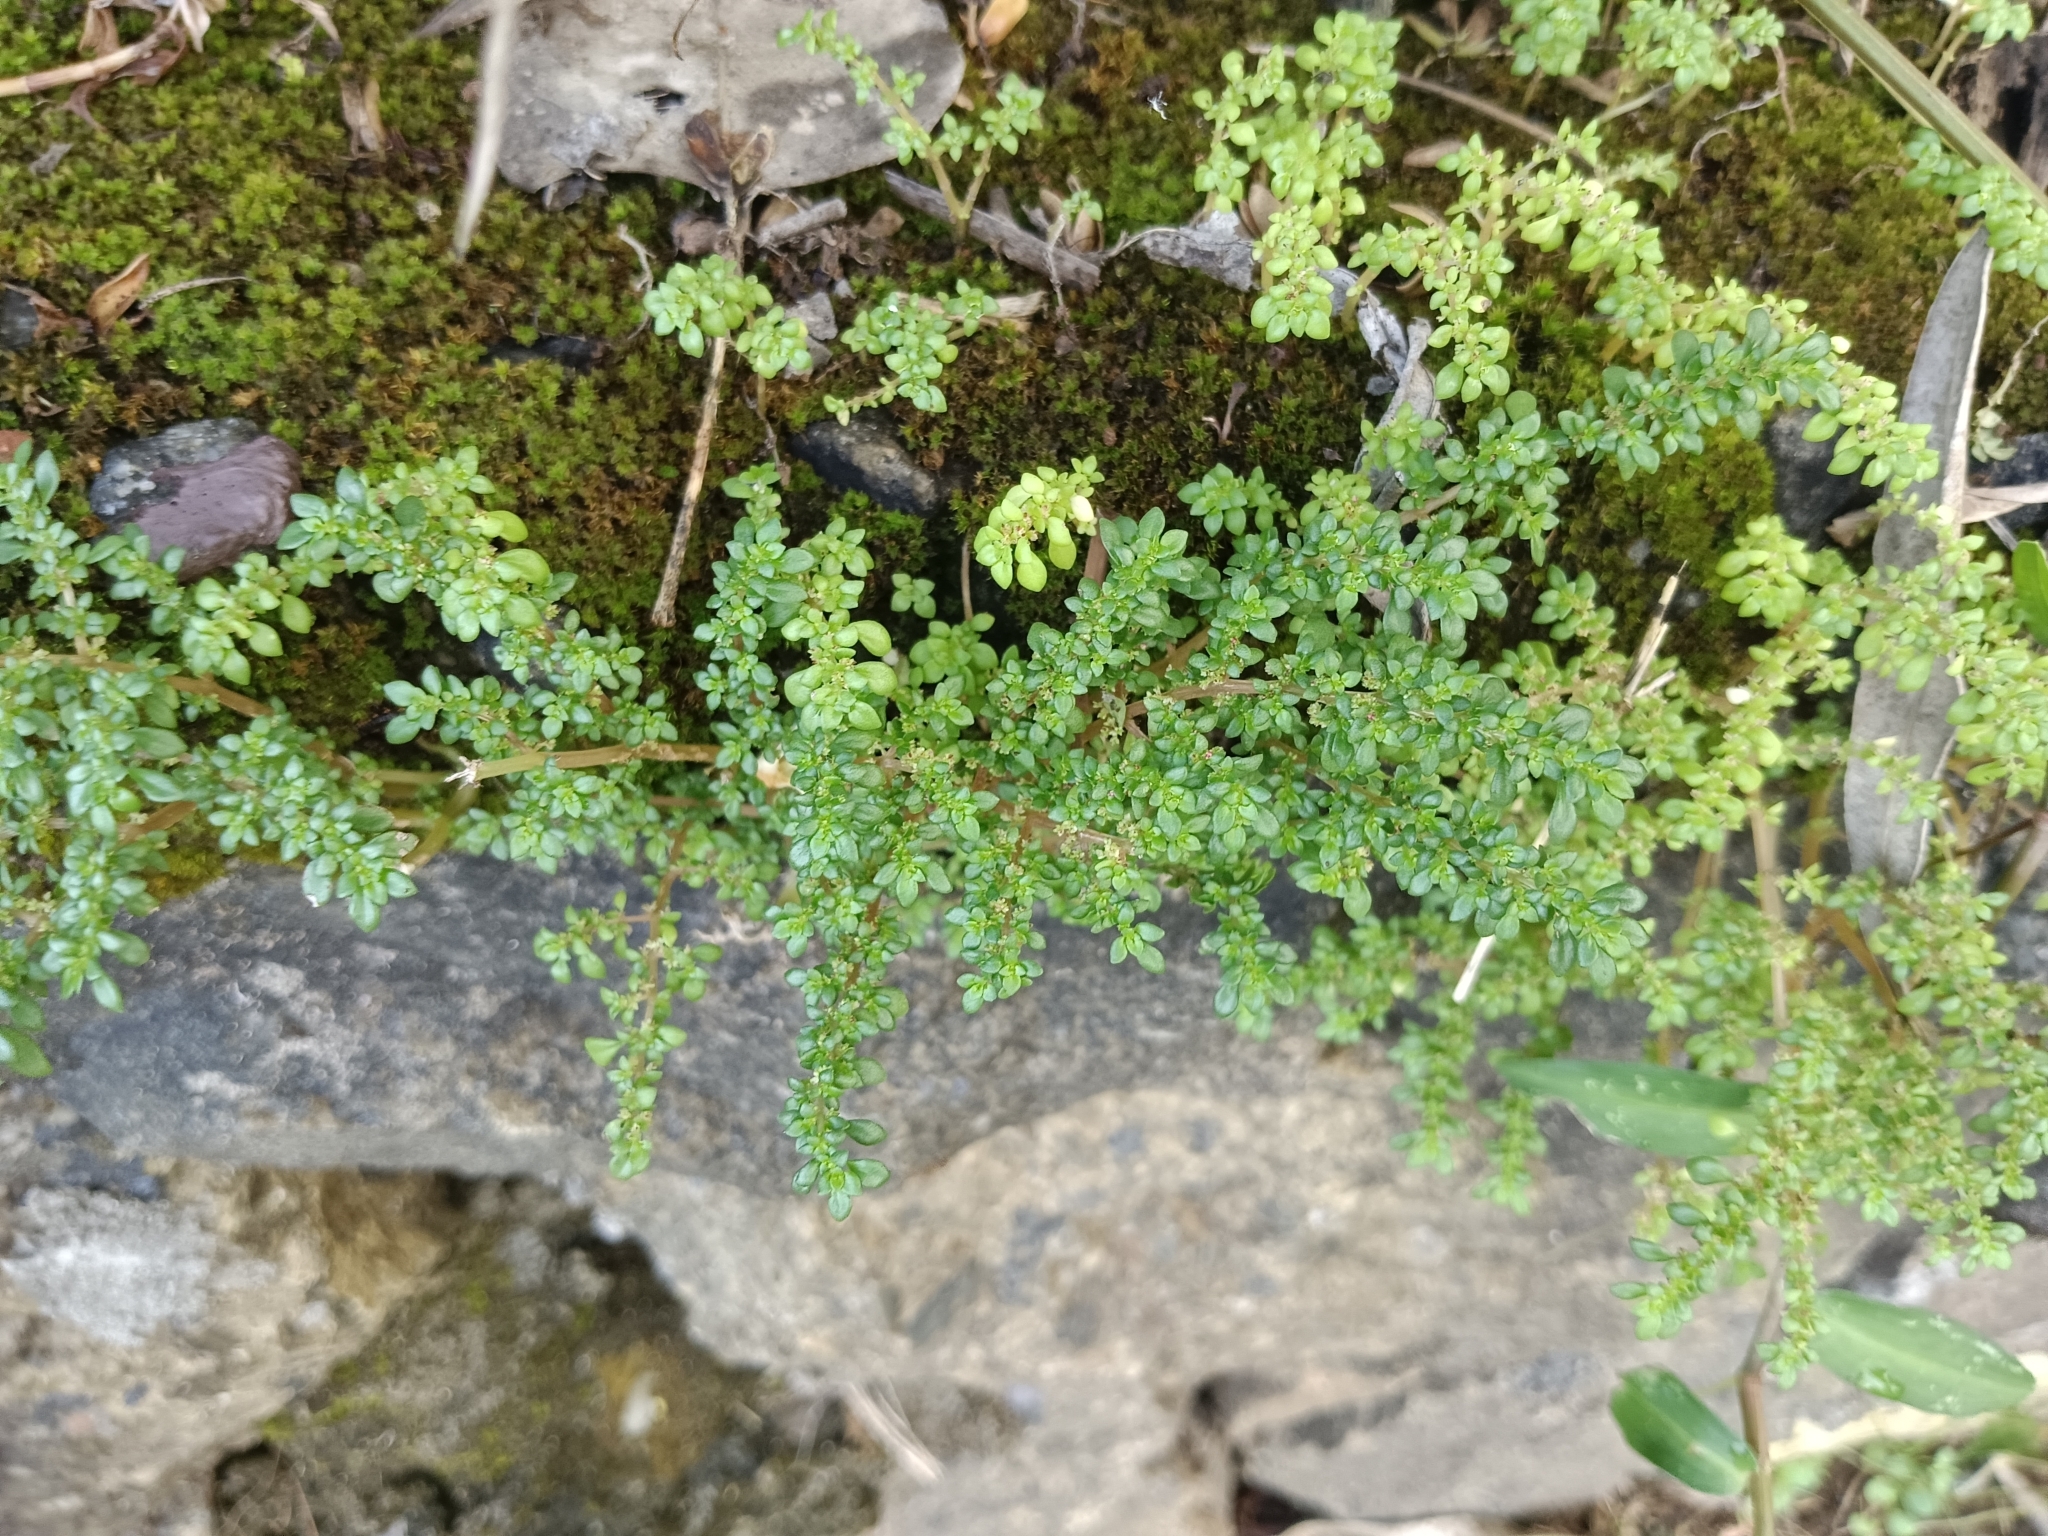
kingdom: Plantae
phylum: Tracheophyta
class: Magnoliopsida
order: Rosales
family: Urticaceae
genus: Pilea
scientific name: Pilea microphylla
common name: Artillery-plant
